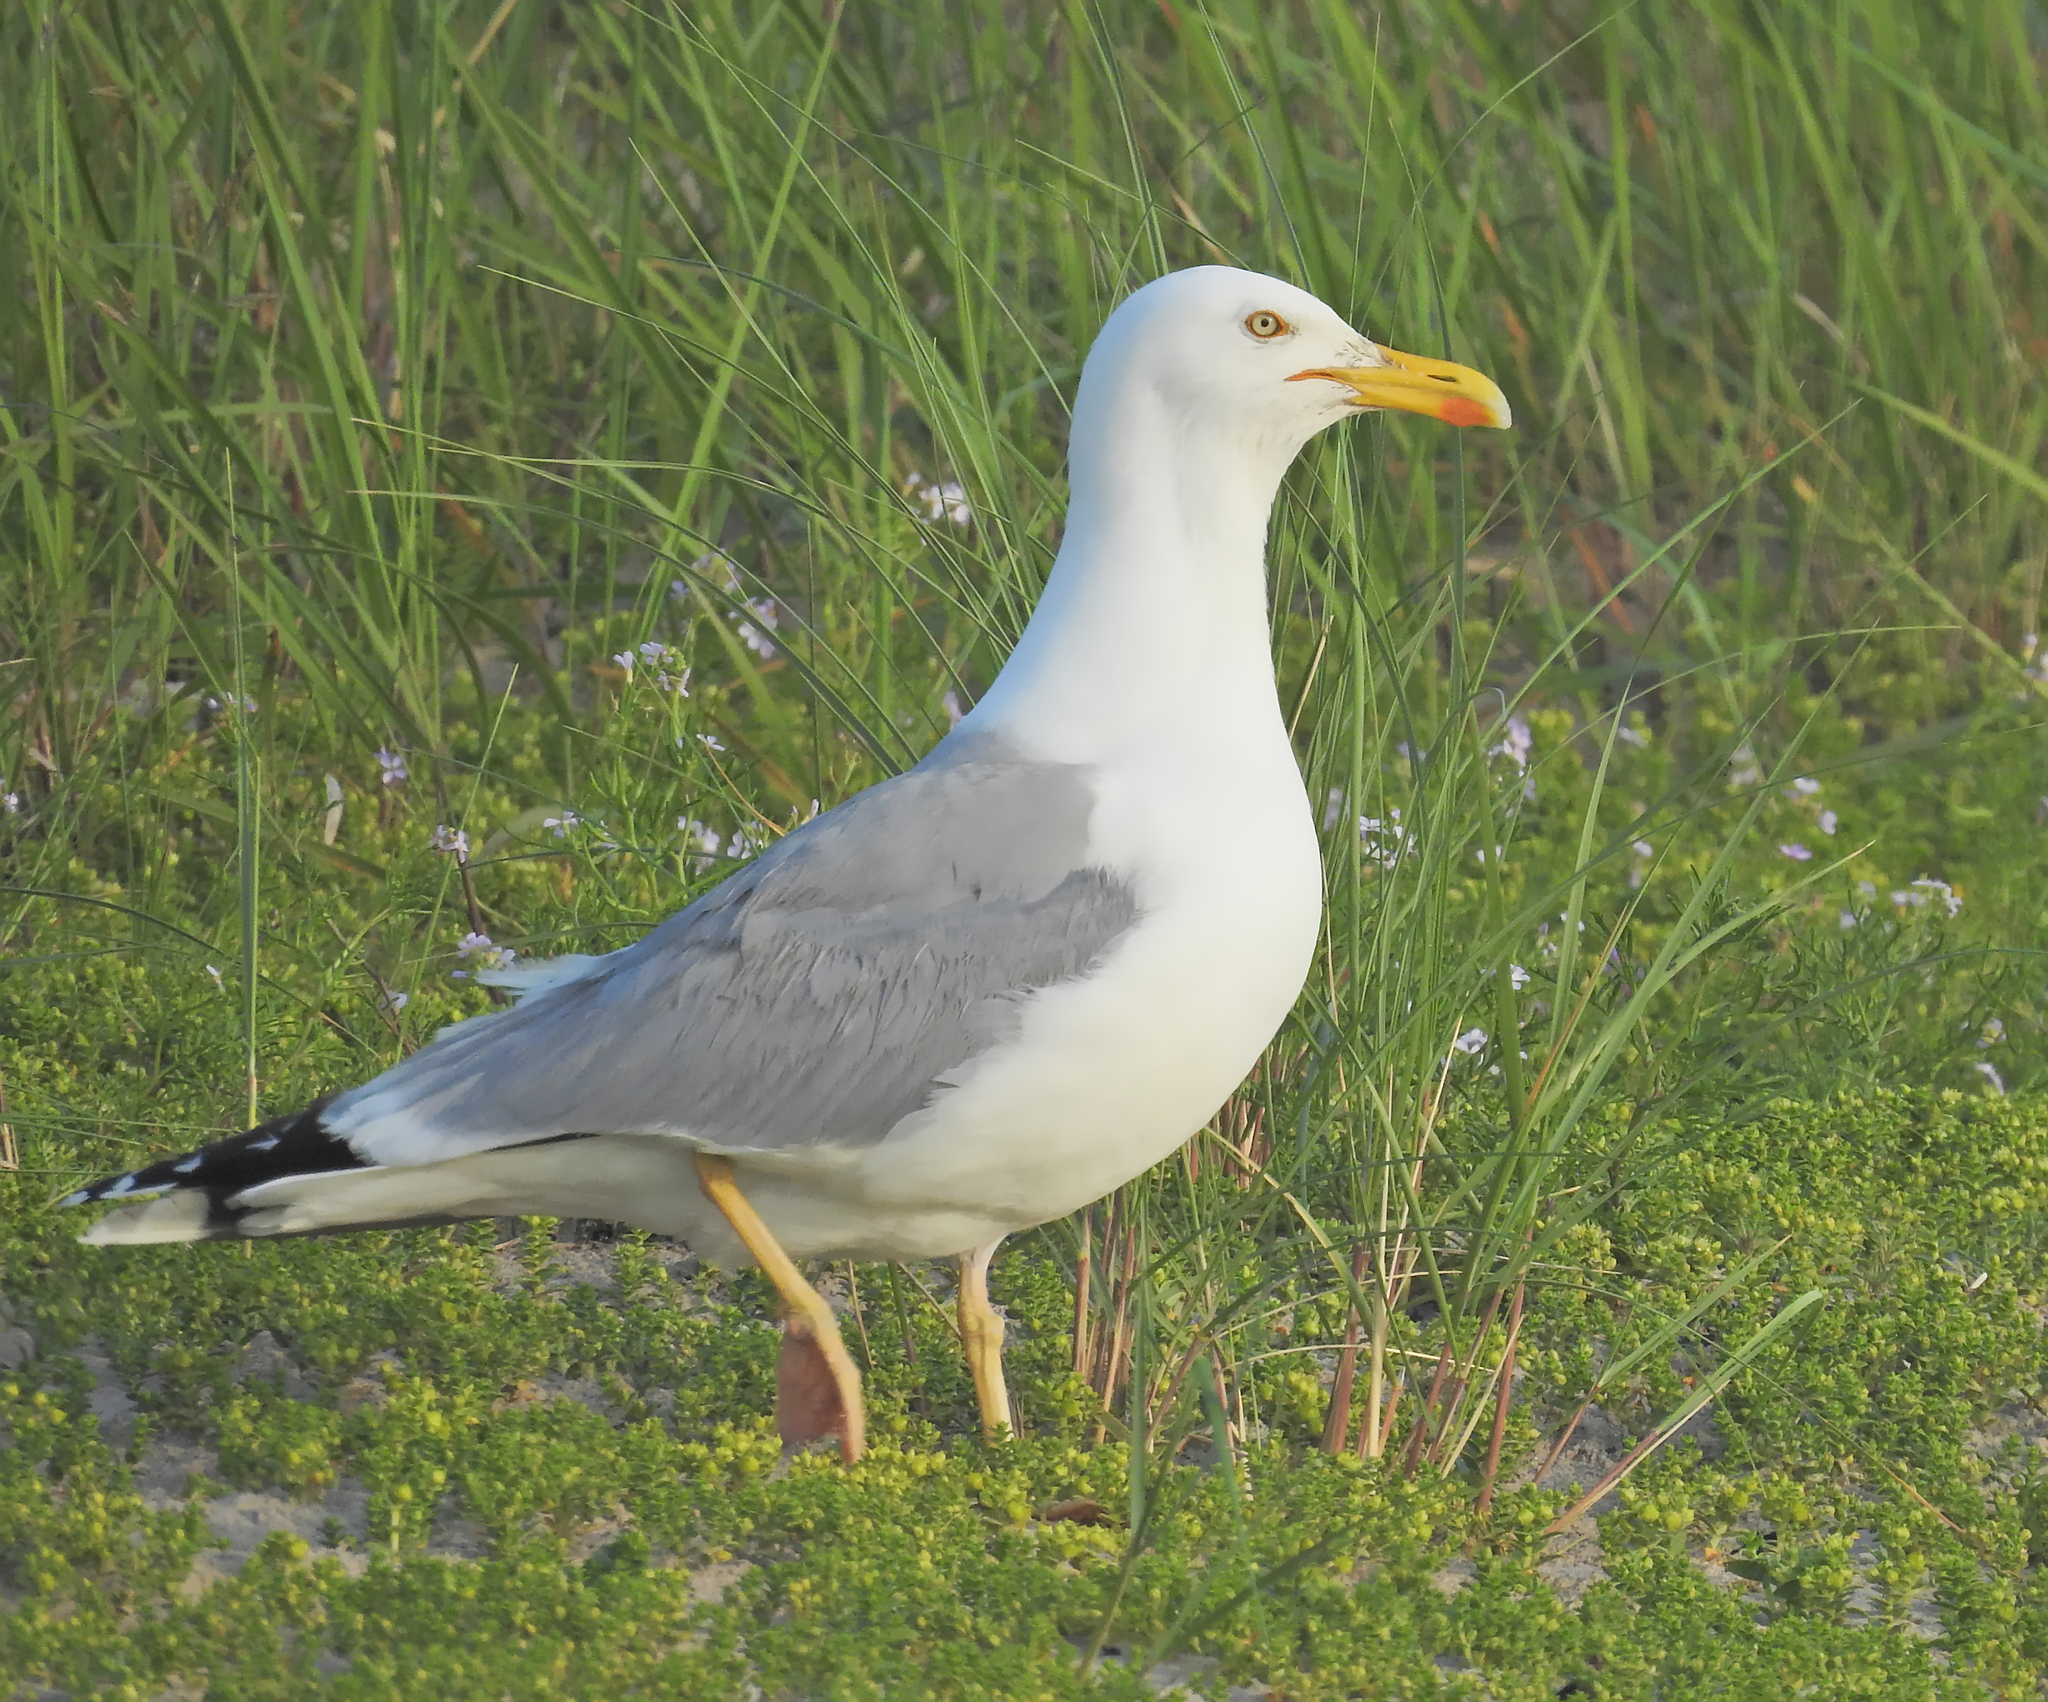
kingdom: Animalia
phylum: Chordata
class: Aves
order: Charadriiformes
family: Laridae
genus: Larus
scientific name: Larus argentatus
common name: Herring gull
